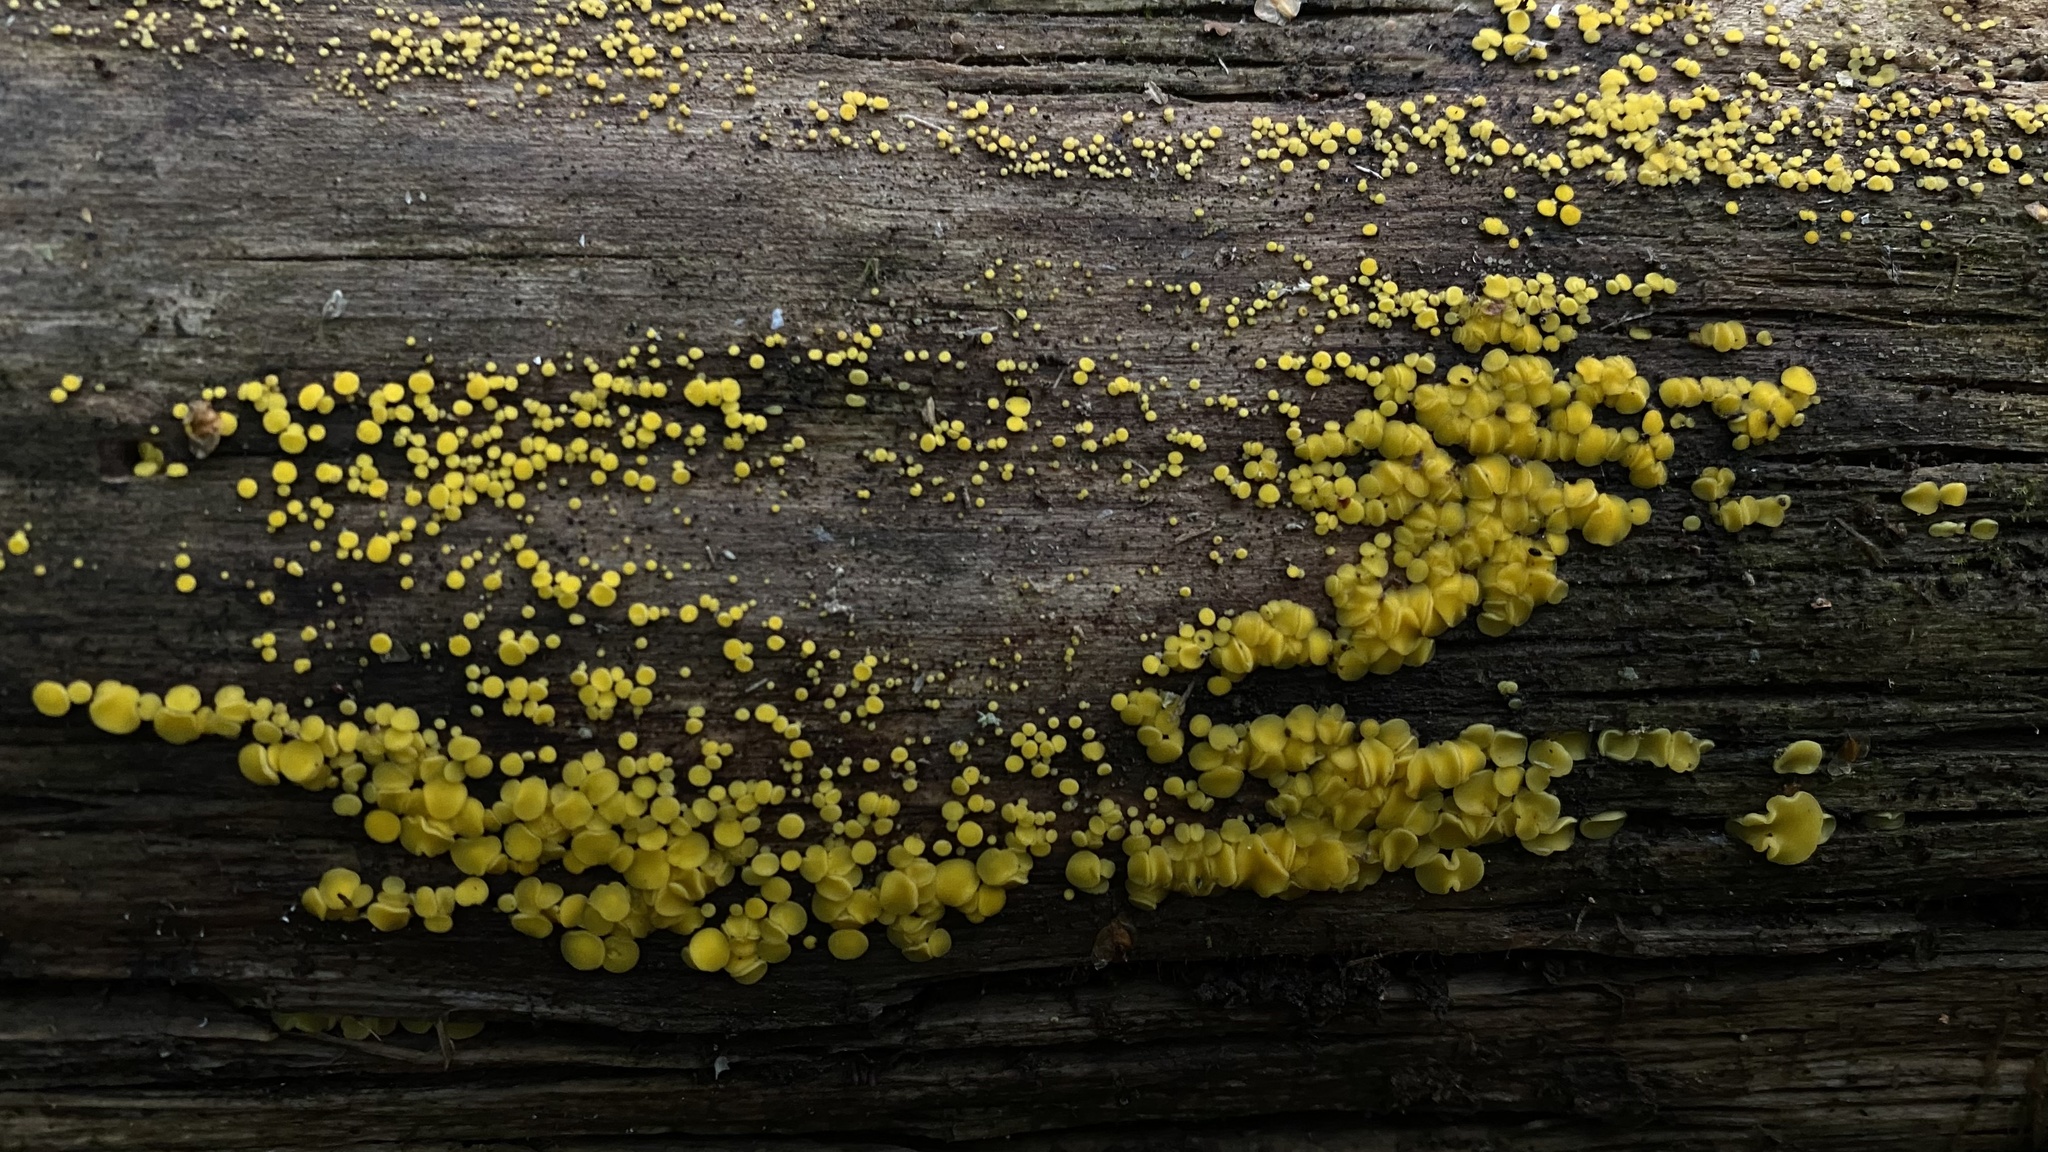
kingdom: Fungi
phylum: Ascomycota
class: Leotiomycetes
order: Helotiales
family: Pezizellaceae
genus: Calycina
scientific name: Calycina citrina
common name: Yellow fairy cups
